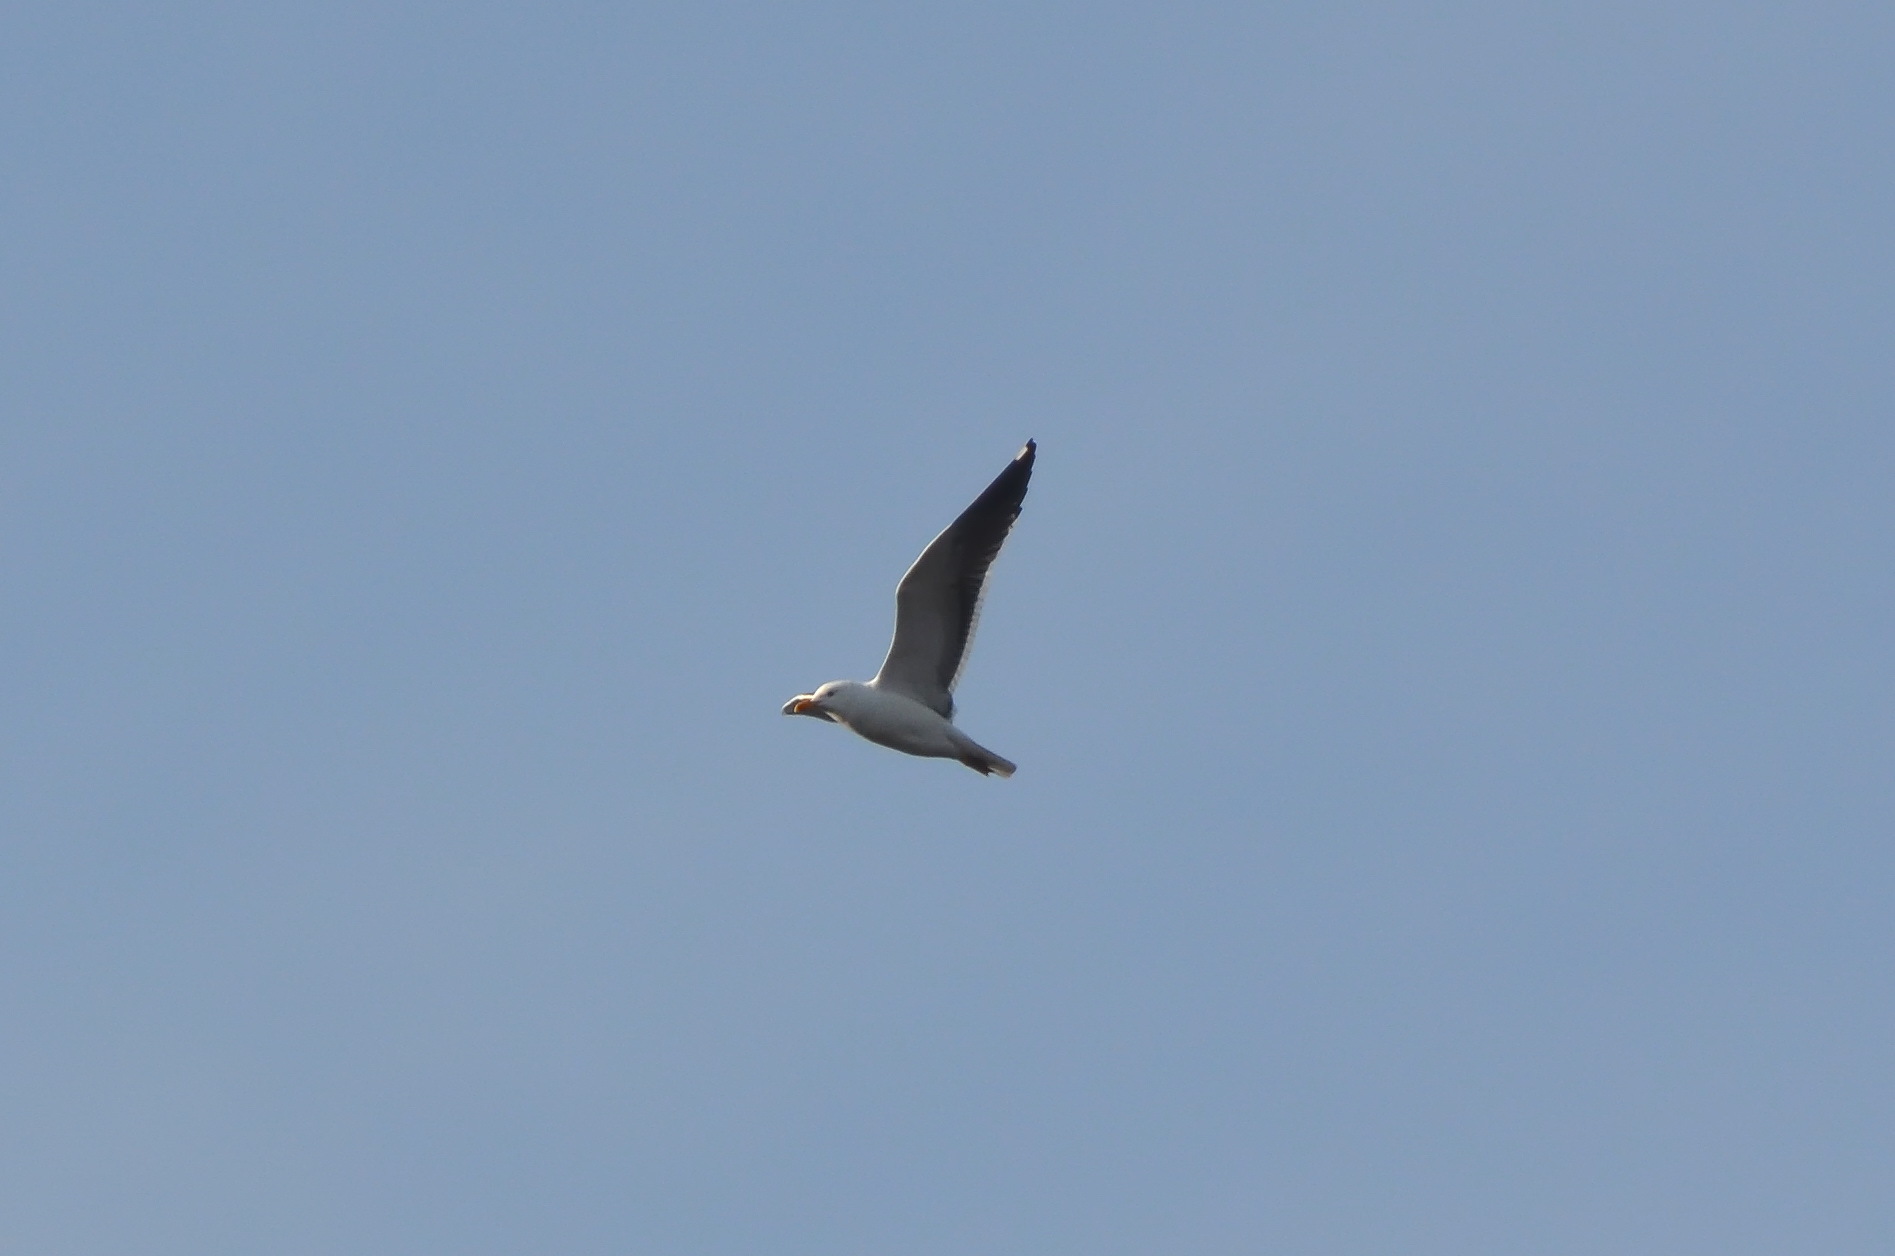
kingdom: Animalia
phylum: Chordata
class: Aves
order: Charadriiformes
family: Laridae
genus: Larus
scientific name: Larus fuscus
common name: Lesser black-backed gull
